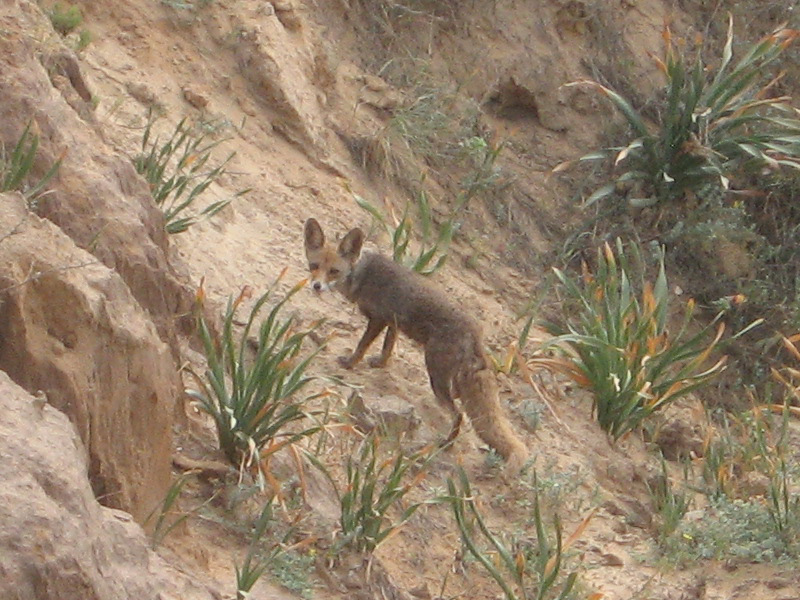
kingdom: Animalia
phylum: Chordata
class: Mammalia
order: Carnivora
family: Canidae
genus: Vulpes
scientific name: Vulpes vulpes
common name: Red fox
